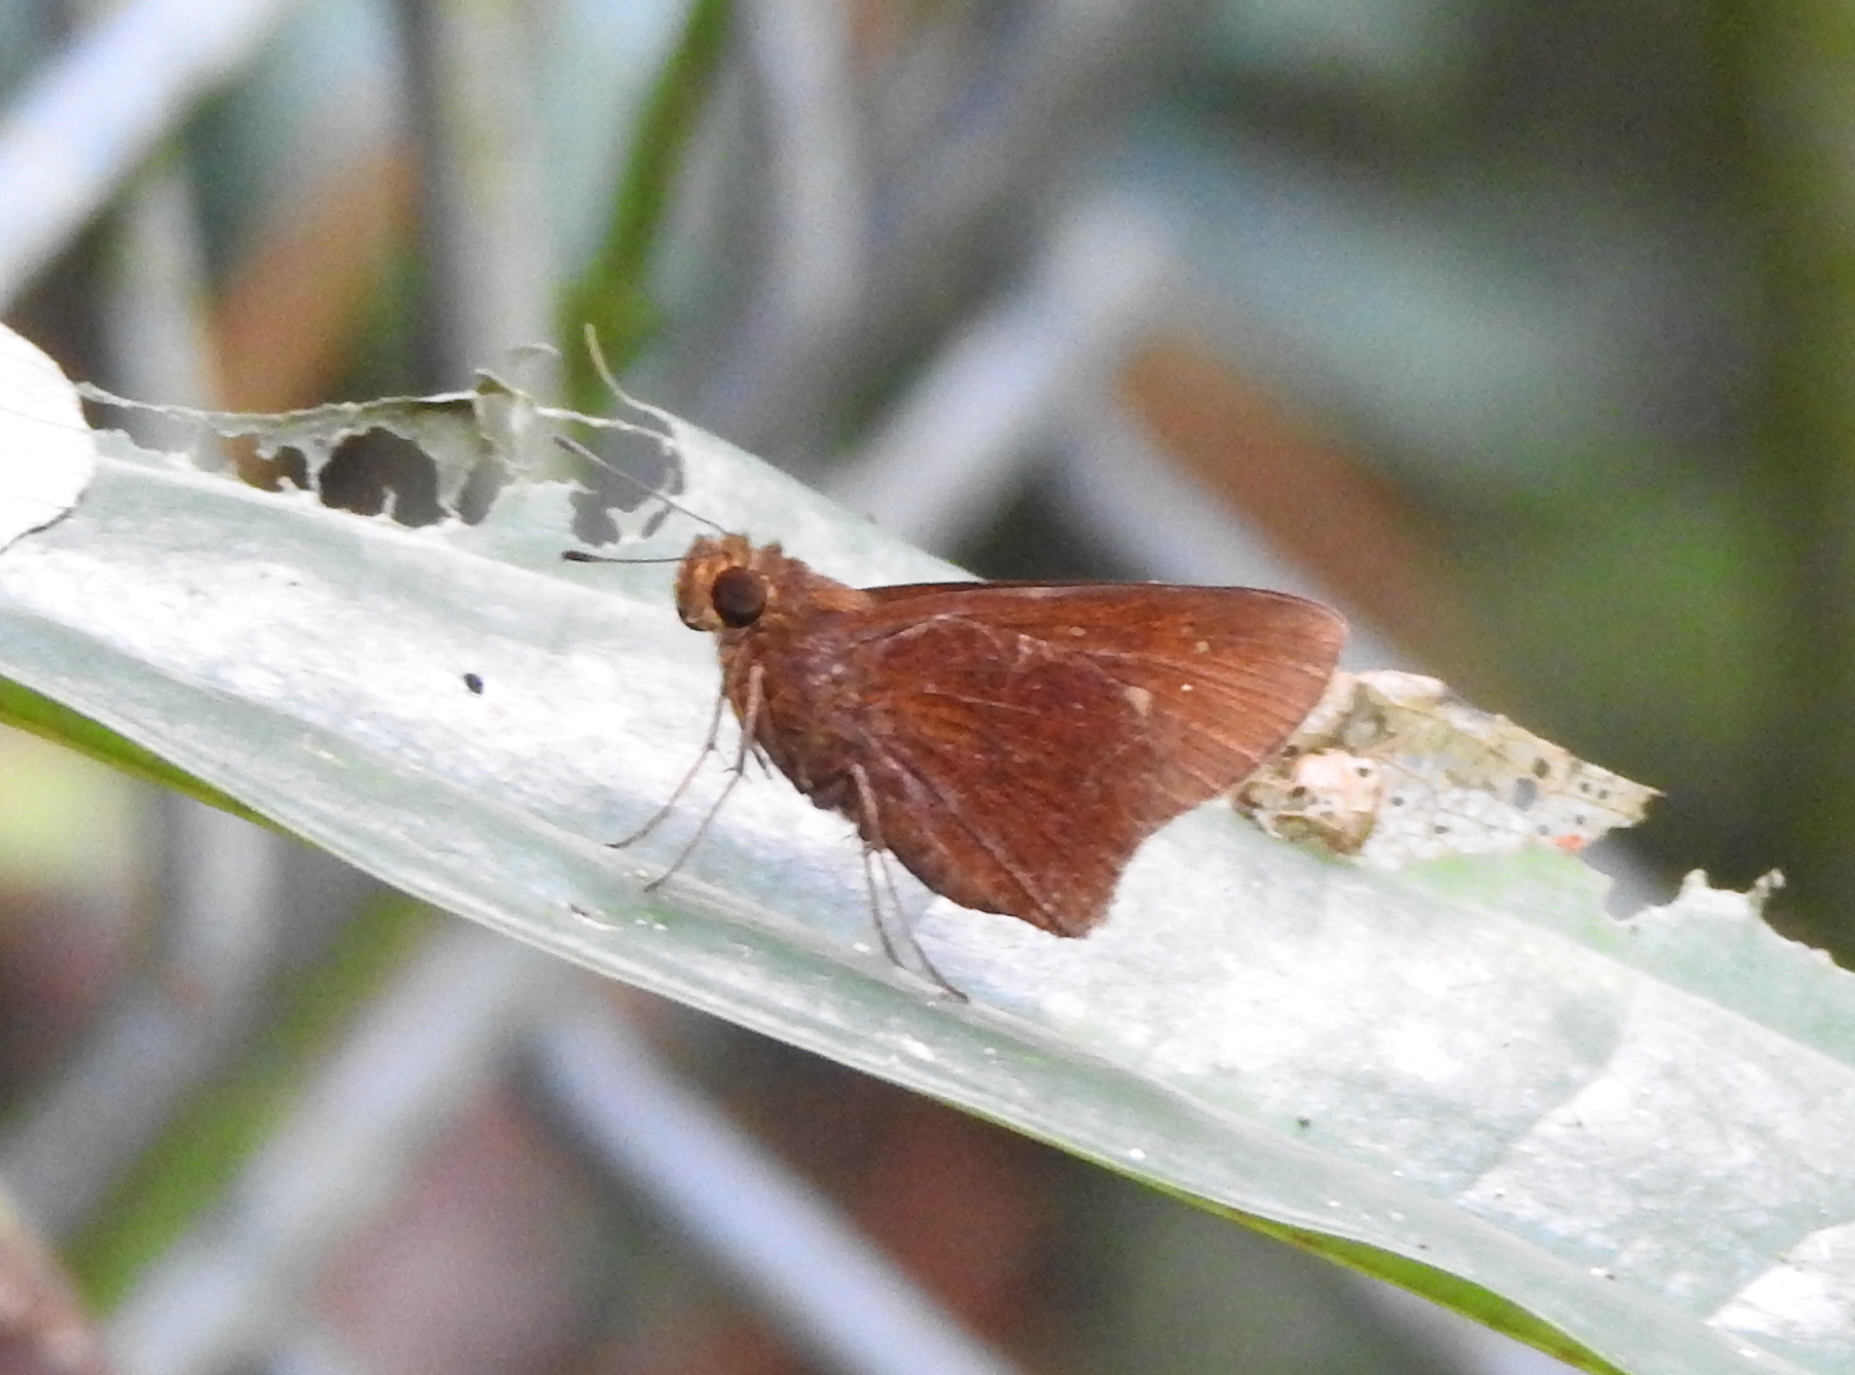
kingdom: Animalia
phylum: Arthropoda
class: Insecta
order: Lepidoptera
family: Hesperiidae
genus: Caltoris
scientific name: Caltoris cormasa
